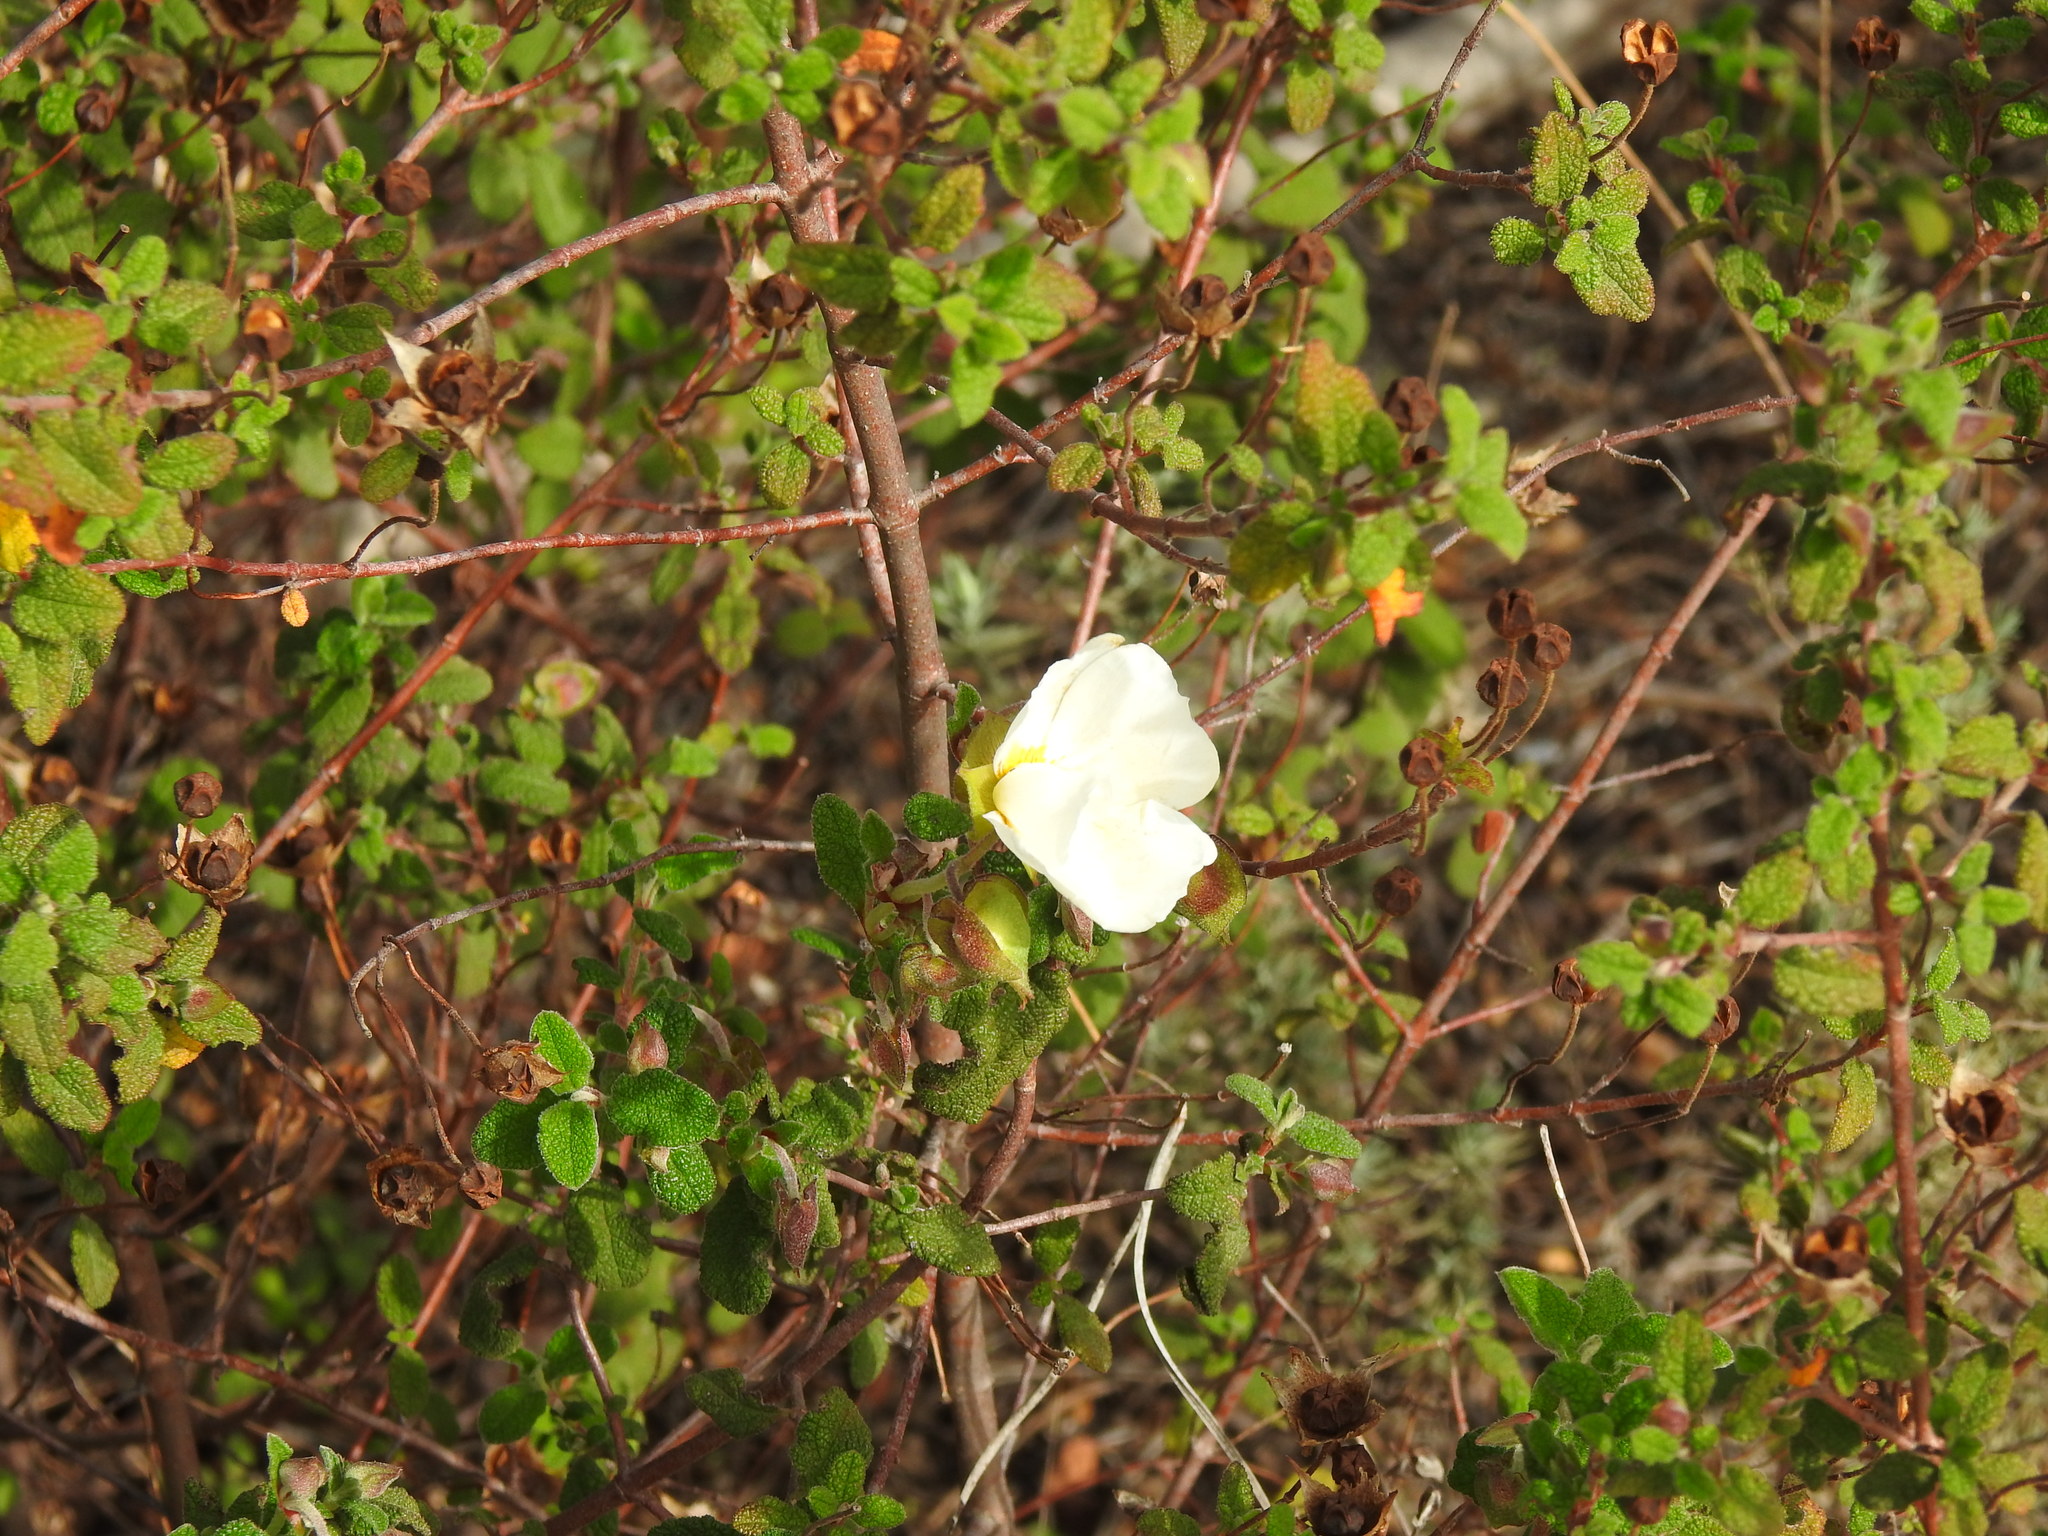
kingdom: Plantae
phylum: Tracheophyta
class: Magnoliopsida
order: Malvales
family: Cistaceae
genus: Cistus
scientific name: Cistus salviifolius
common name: Salvia cistus
